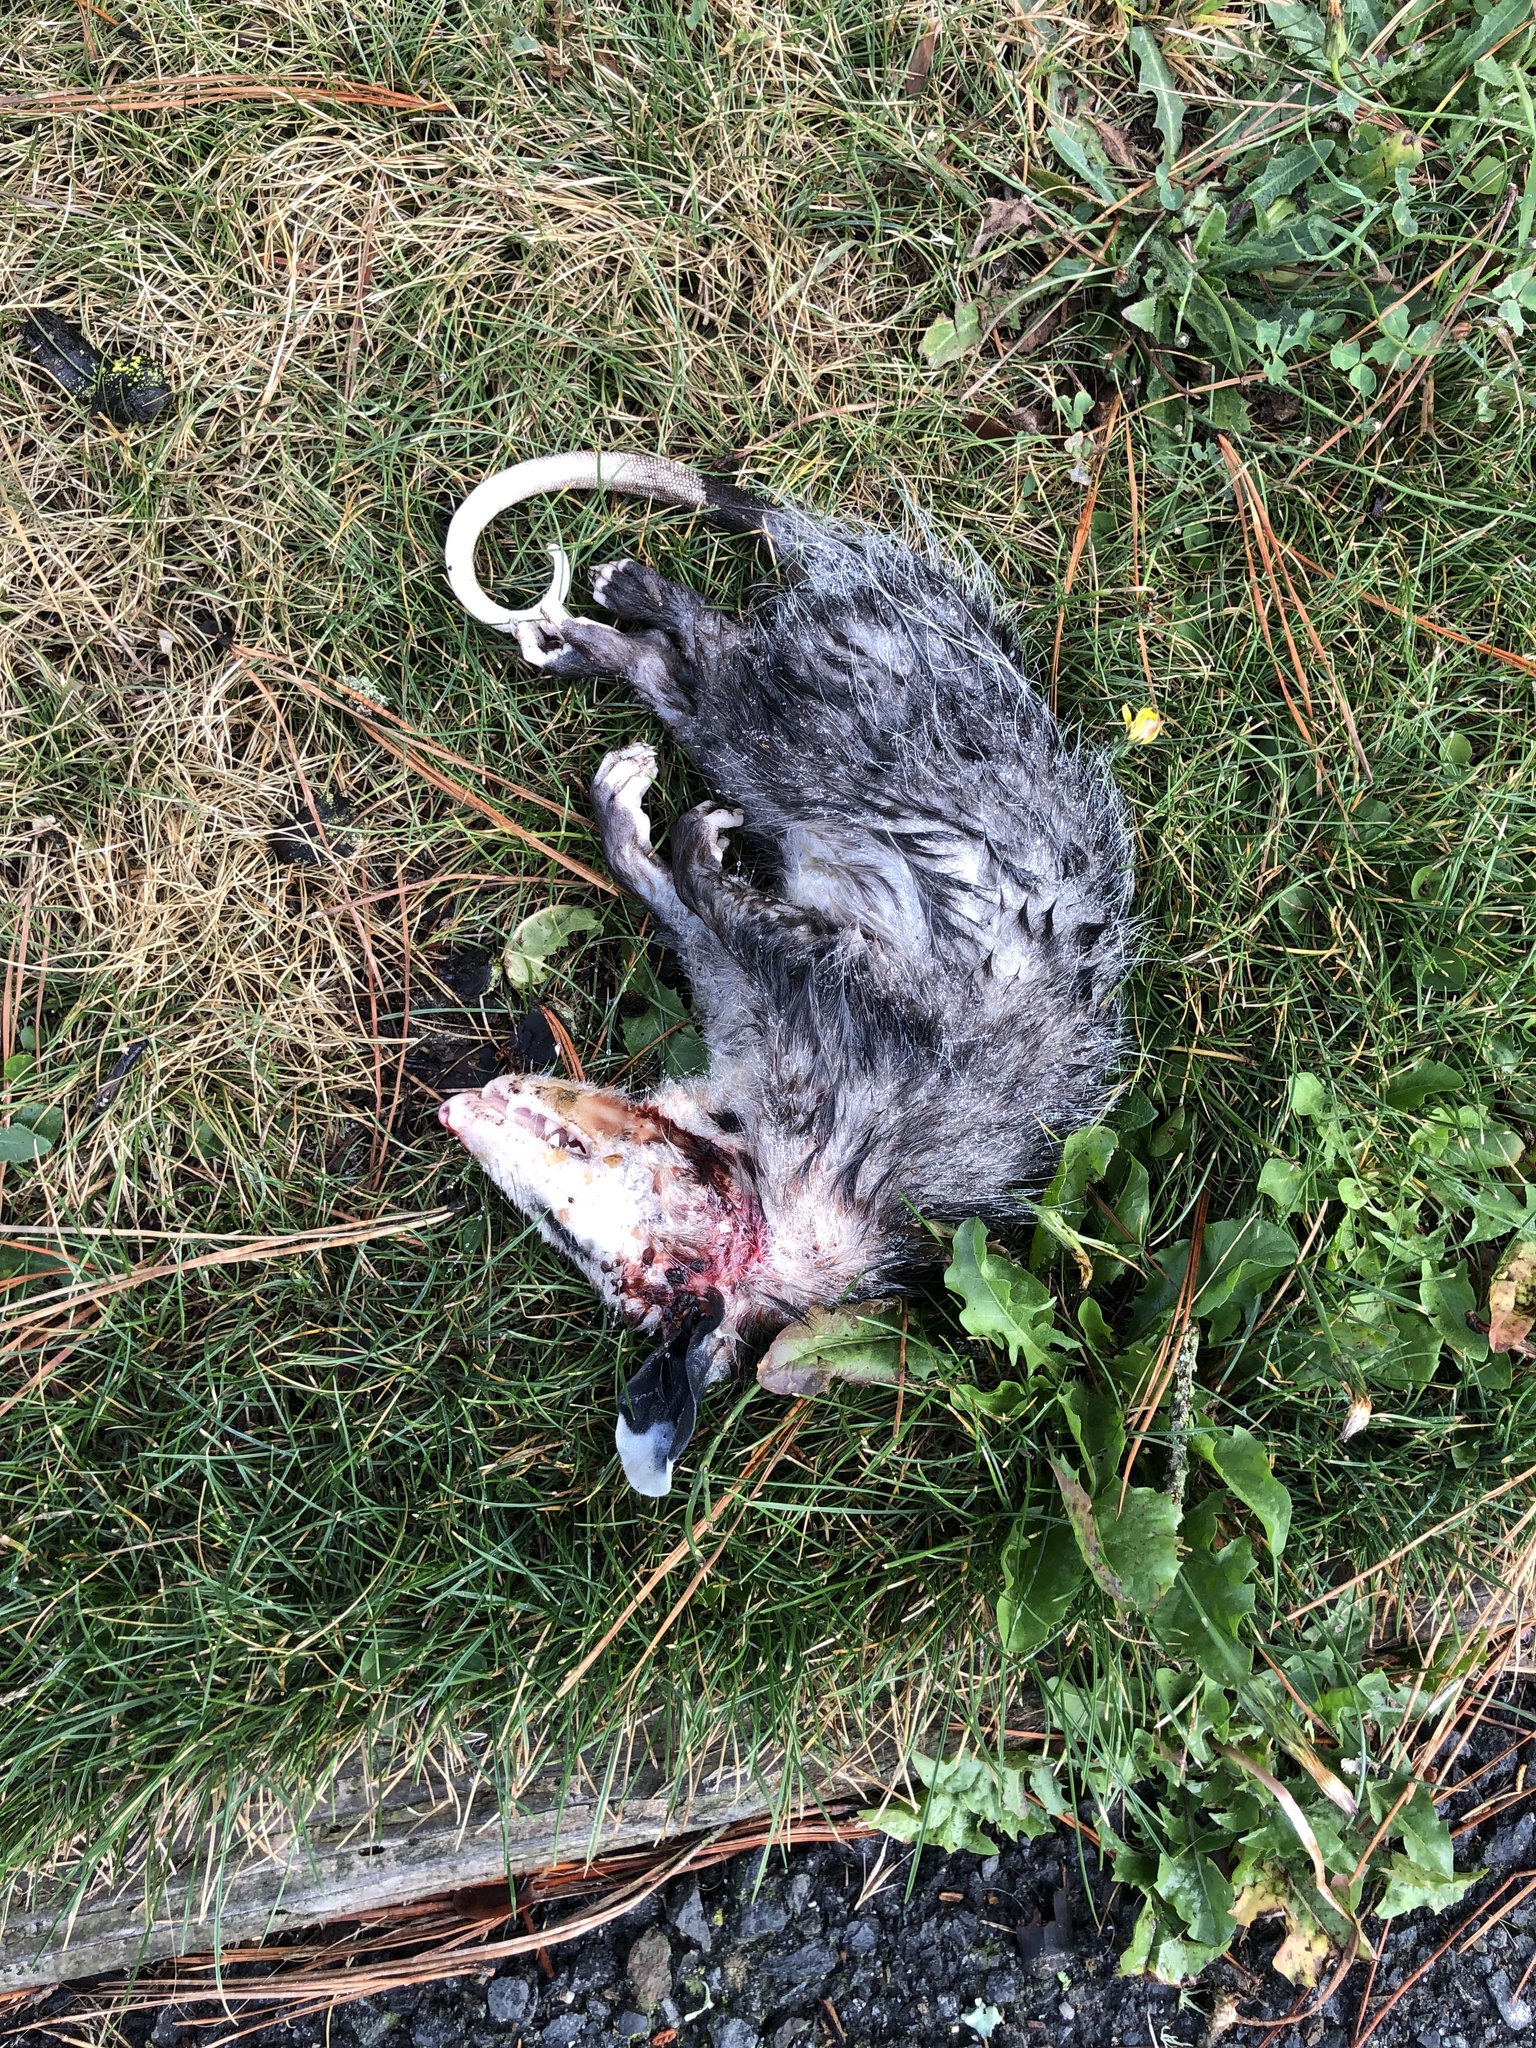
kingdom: Animalia
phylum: Chordata
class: Mammalia
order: Didelphimorphia
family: Didelphidae
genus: Didelphis
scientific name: Didelphis virginiana
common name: Virginia opossum
